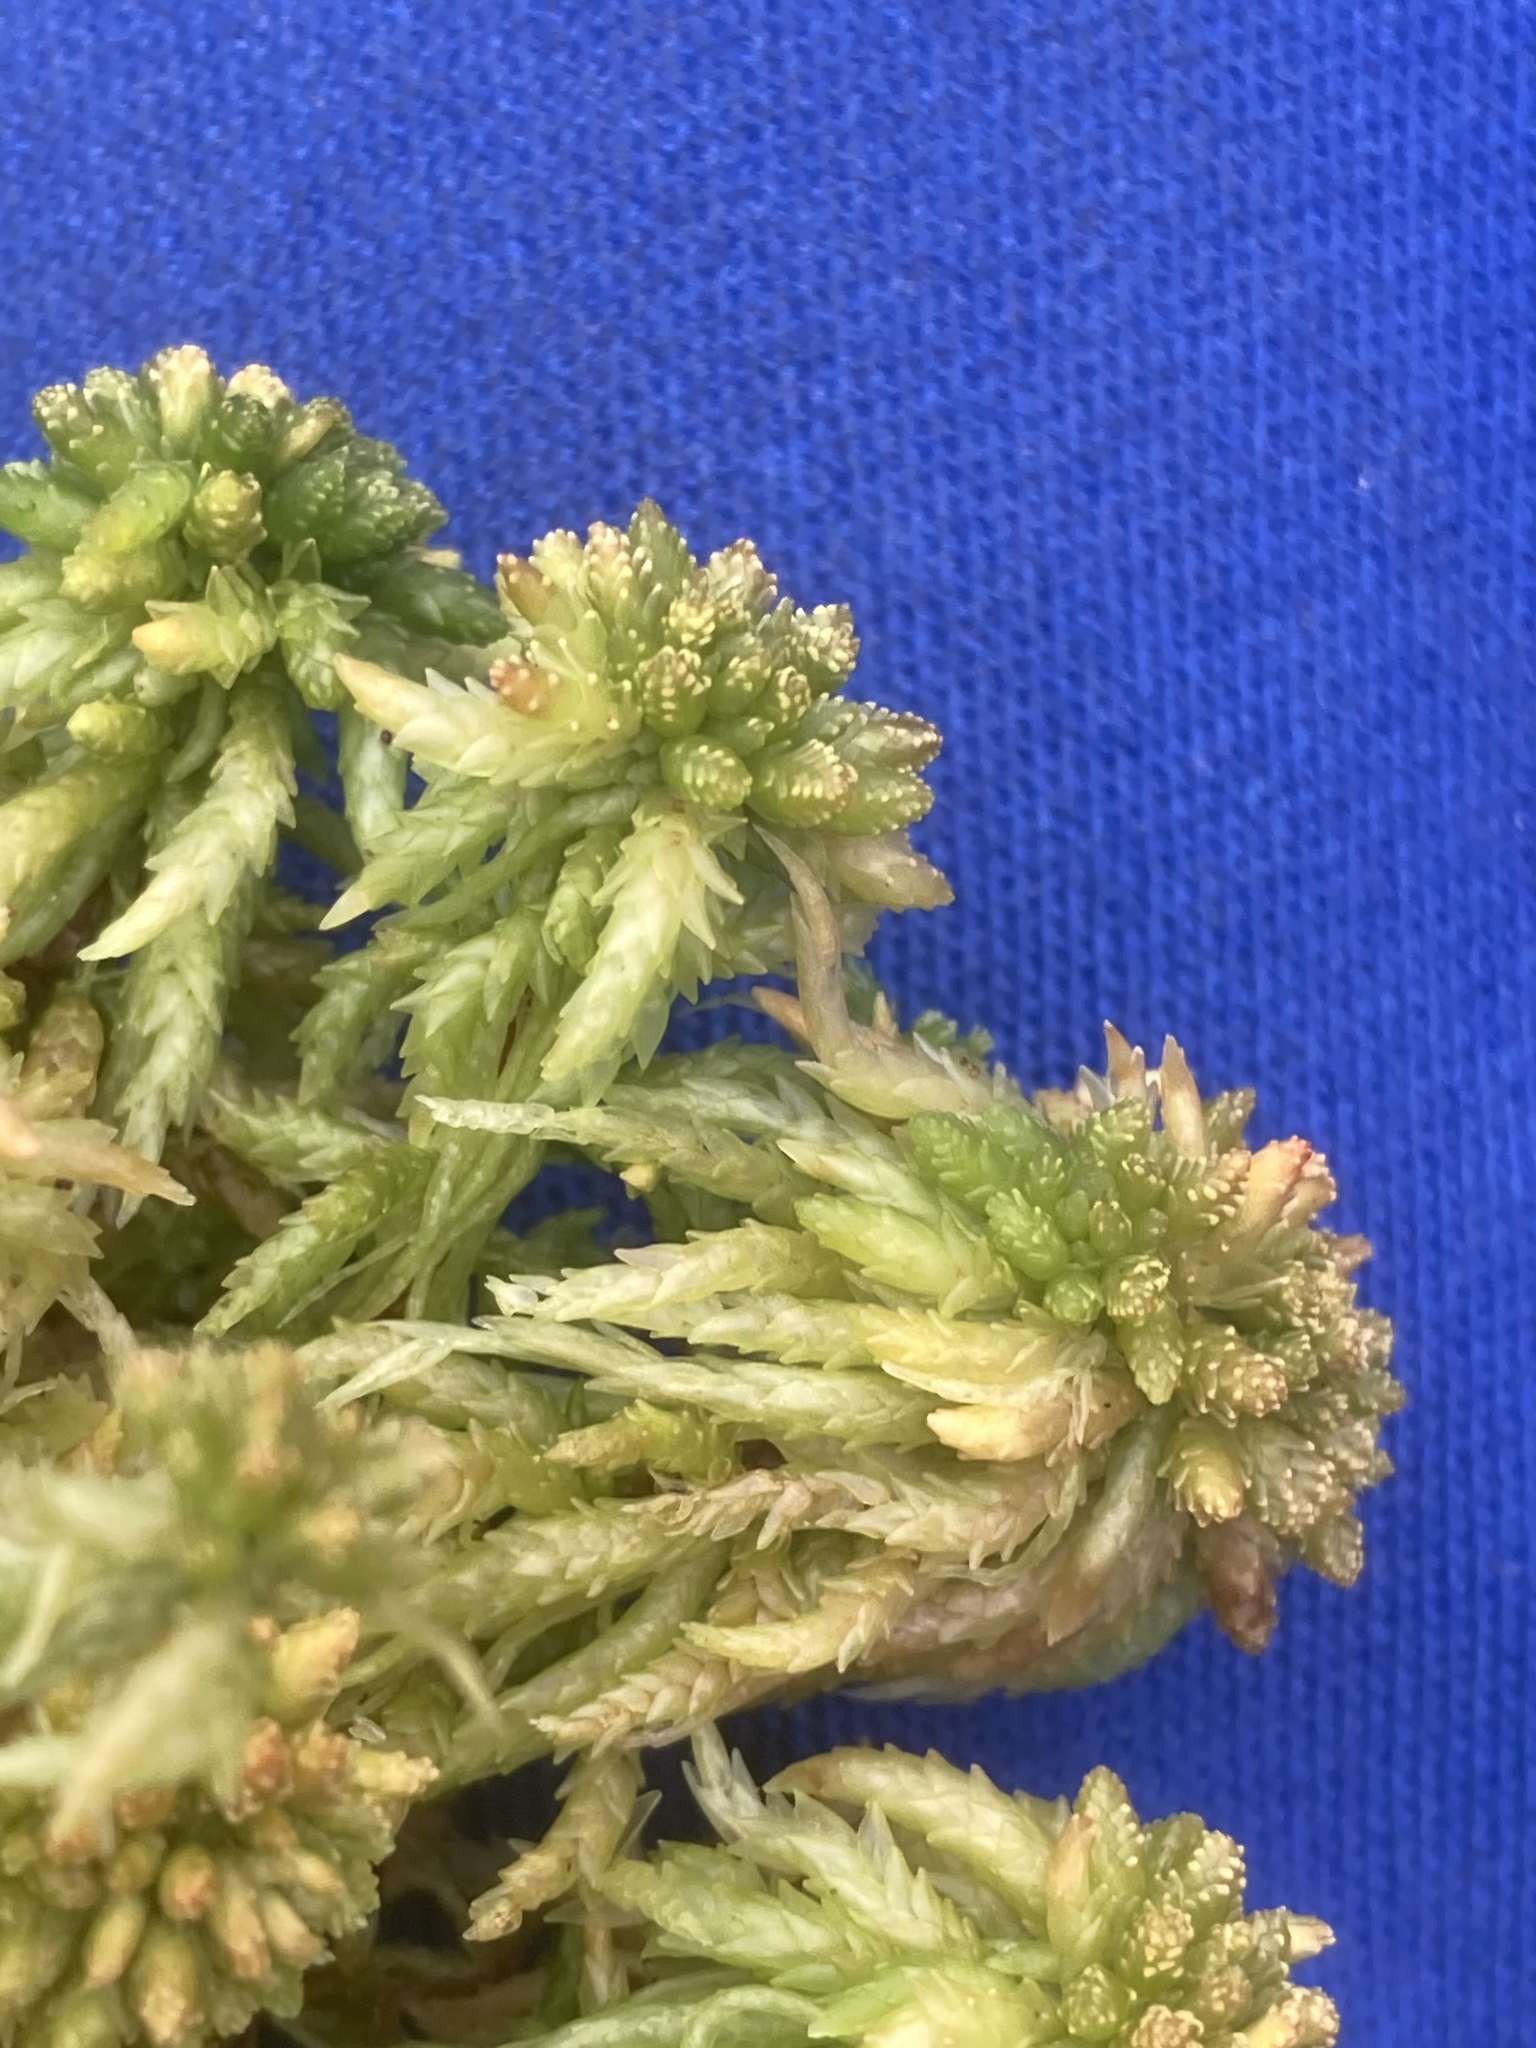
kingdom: Plantae
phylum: Bryophyta
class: Sphagnopsida
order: Sphagnales
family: Sphagnaceae
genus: Sphagnum
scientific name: Sphagnum papillosum
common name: Papillose peat moss
